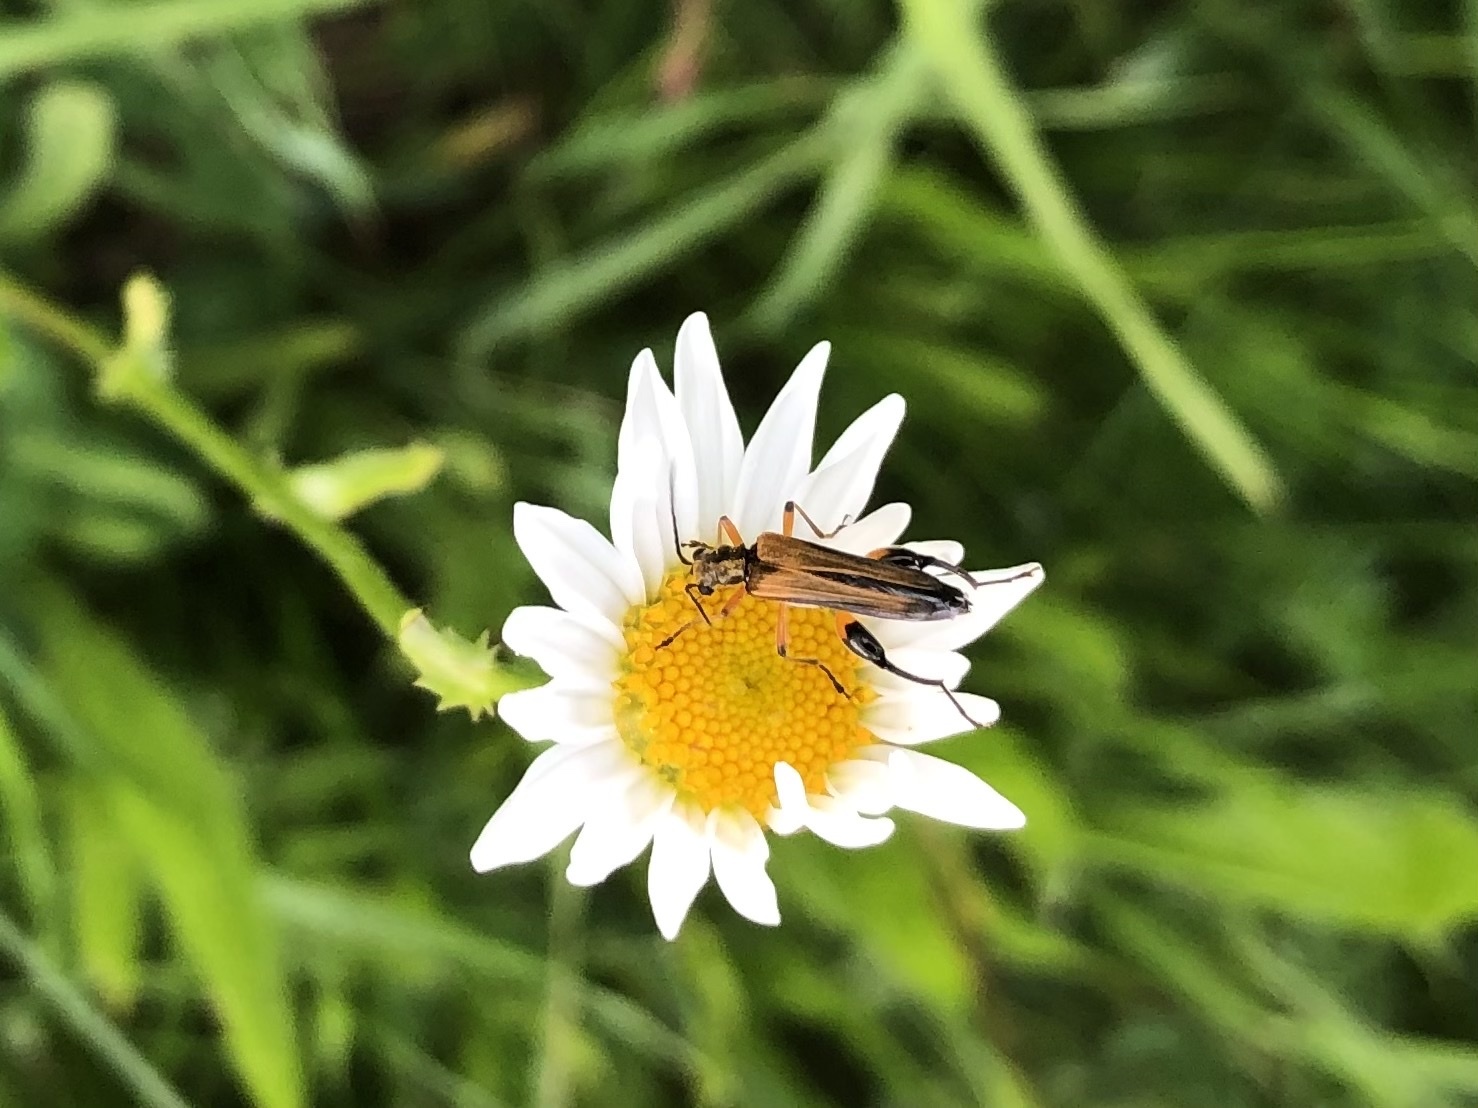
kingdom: Animalia
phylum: Arthropoda
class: Insecta
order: Coleoptera
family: Oedemeridae
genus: Oedemera
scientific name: Oedemera podagrariae
